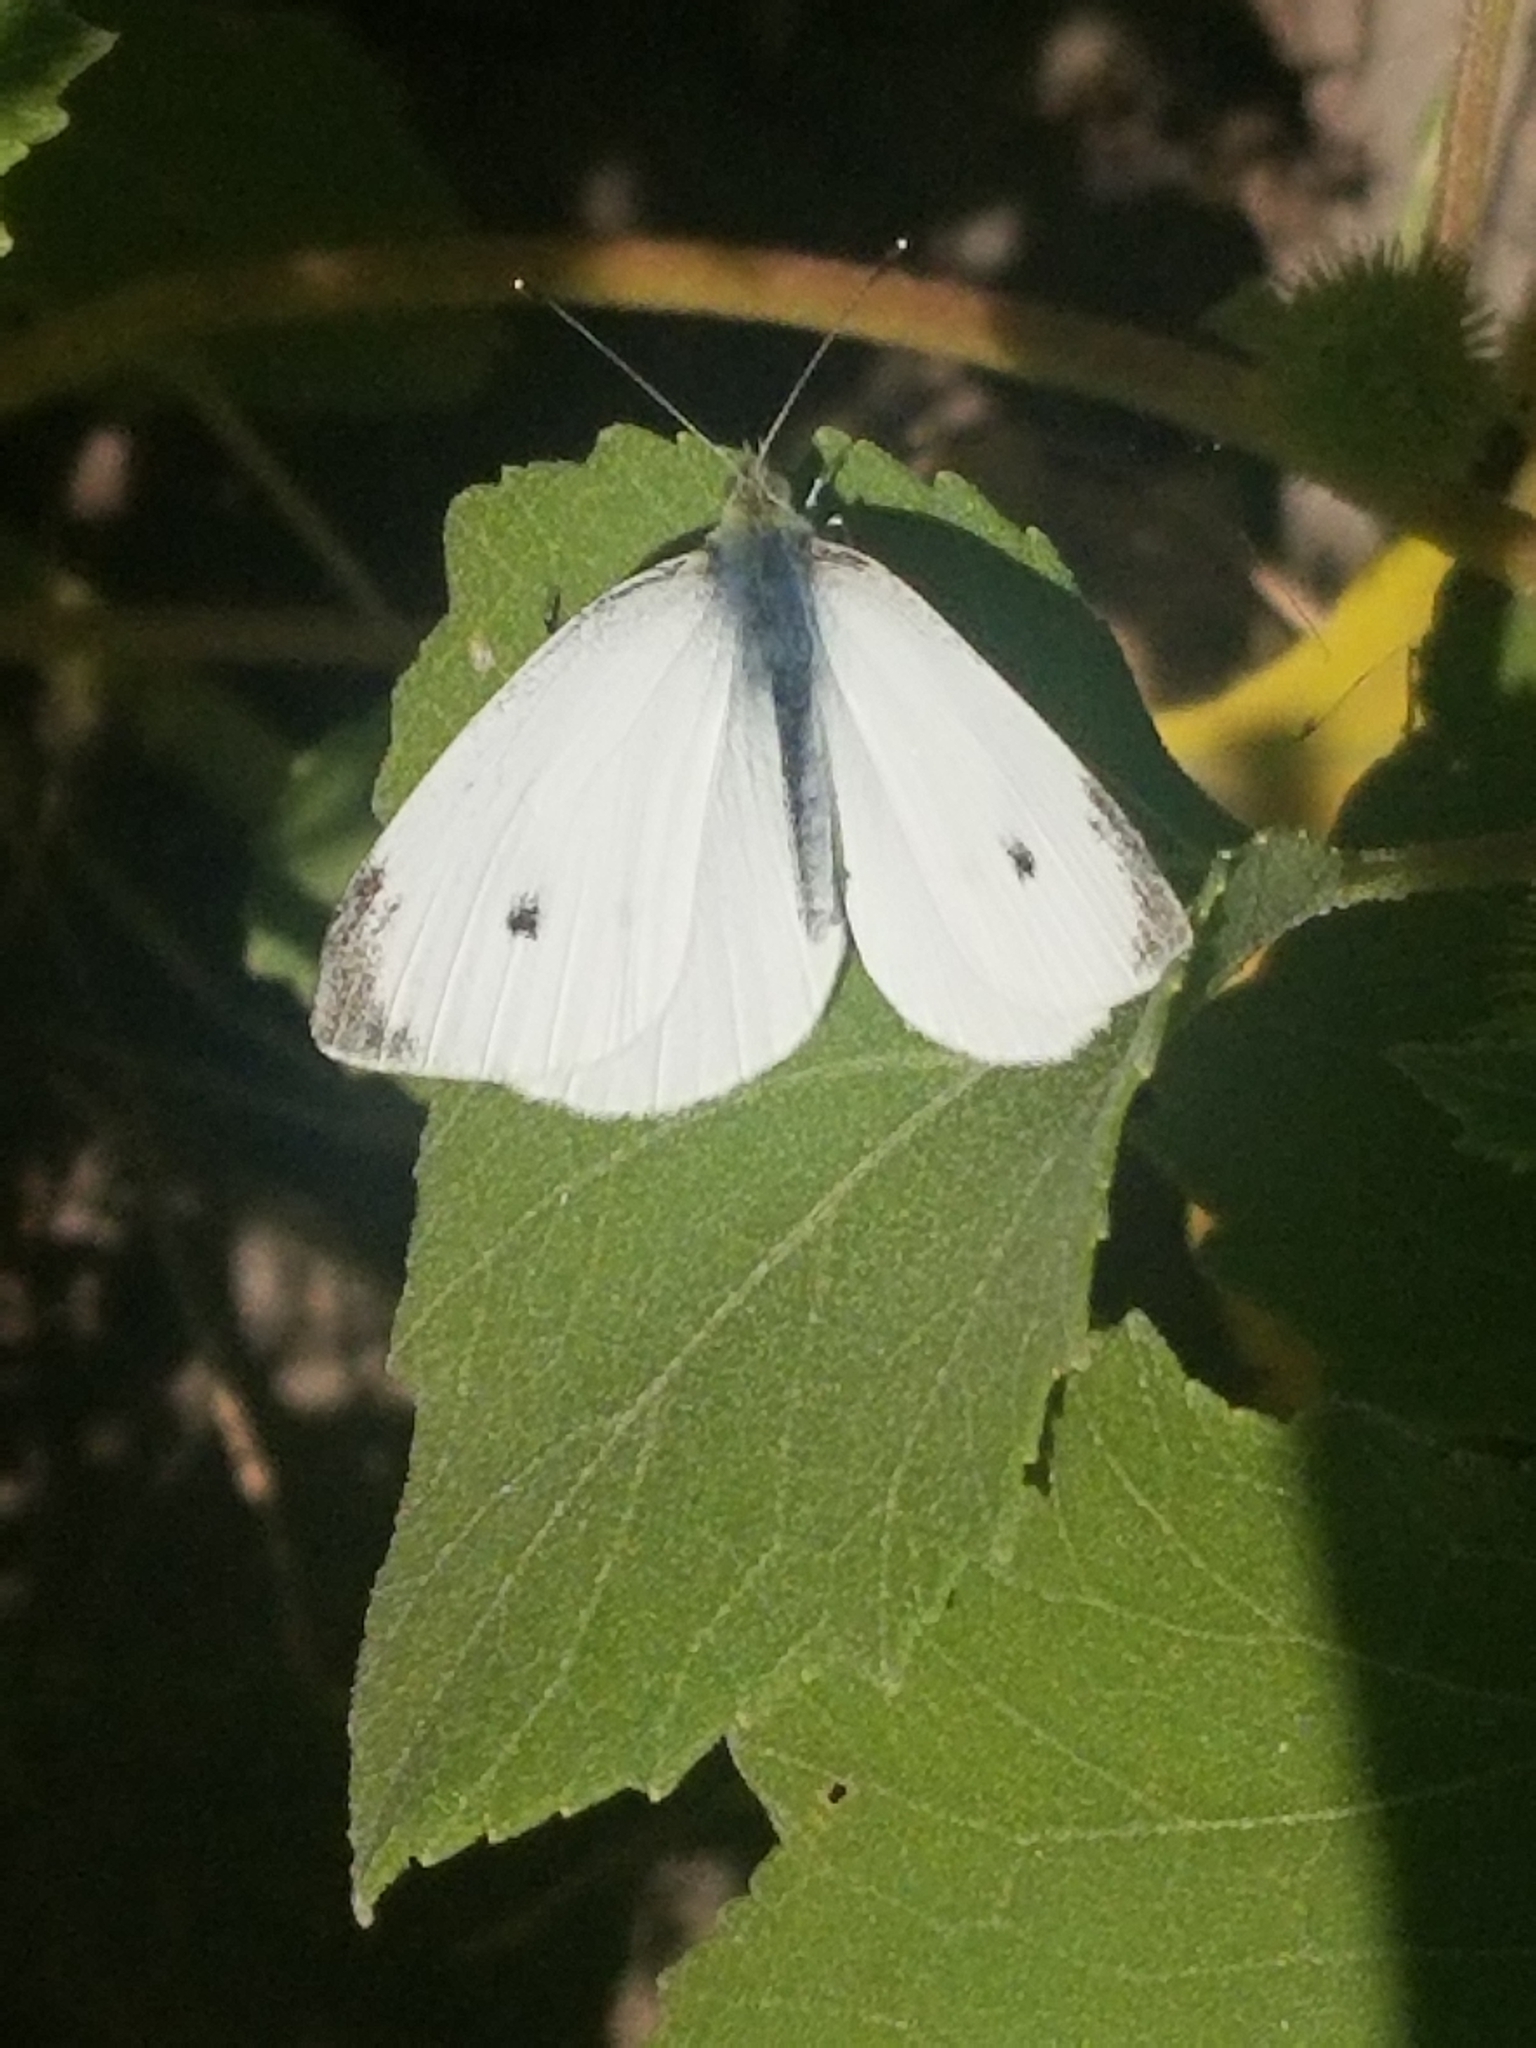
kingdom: Animalia
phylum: Arthropoda
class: Insecta
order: Lepidoptera
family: Pieridae
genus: Pieris
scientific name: Pieris rapae
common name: Small white
